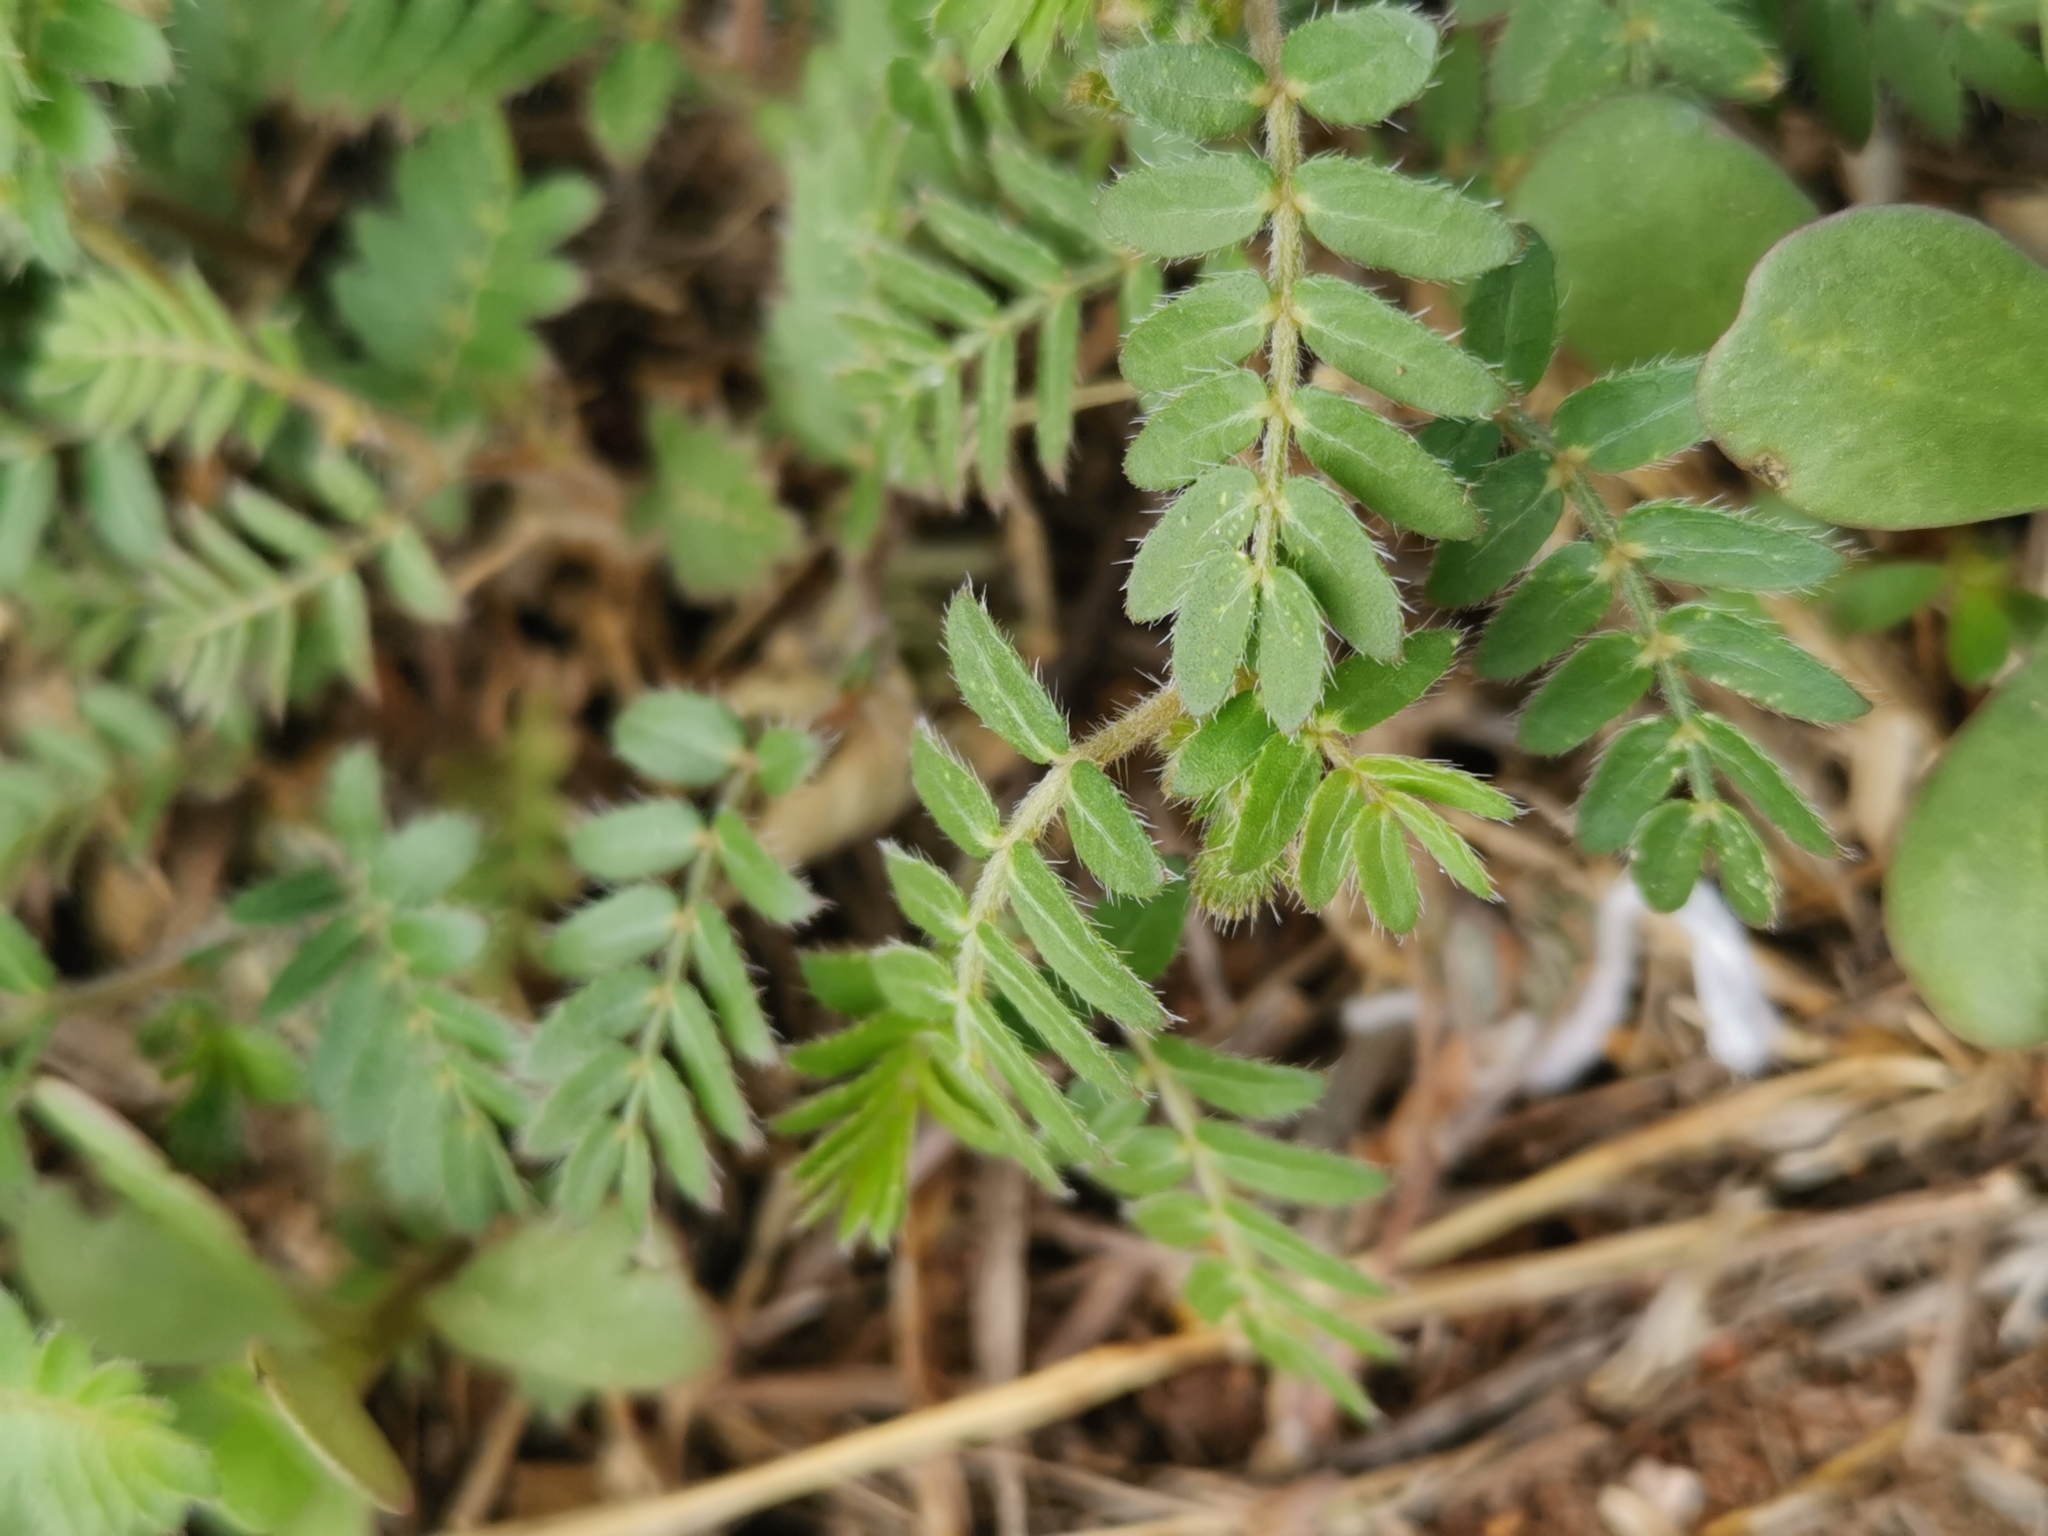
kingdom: Plantae
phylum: Tracheophyta
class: Magnoliopsida
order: Zygophyllales
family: Zygophyllaceae
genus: Tribulus
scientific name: Tribulus terrestris
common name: Puncturevine
